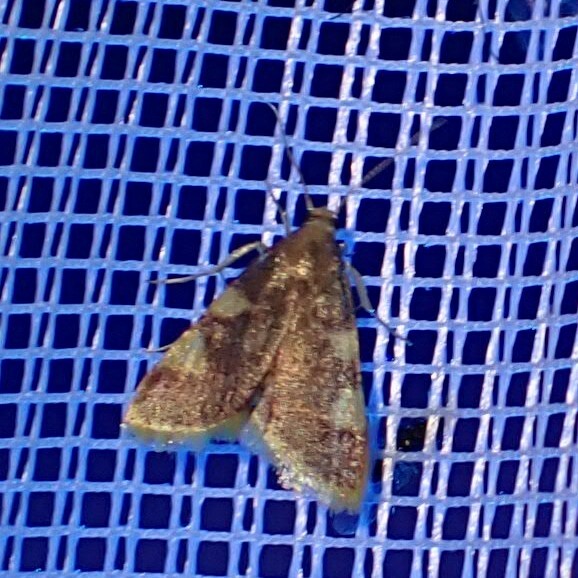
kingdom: Animalia
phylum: Arthropoda
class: Insecta
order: Lepidoptera
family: Pyralidae
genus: Hypsopygia
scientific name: Hypsopygia costalis
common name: Gold triangle
